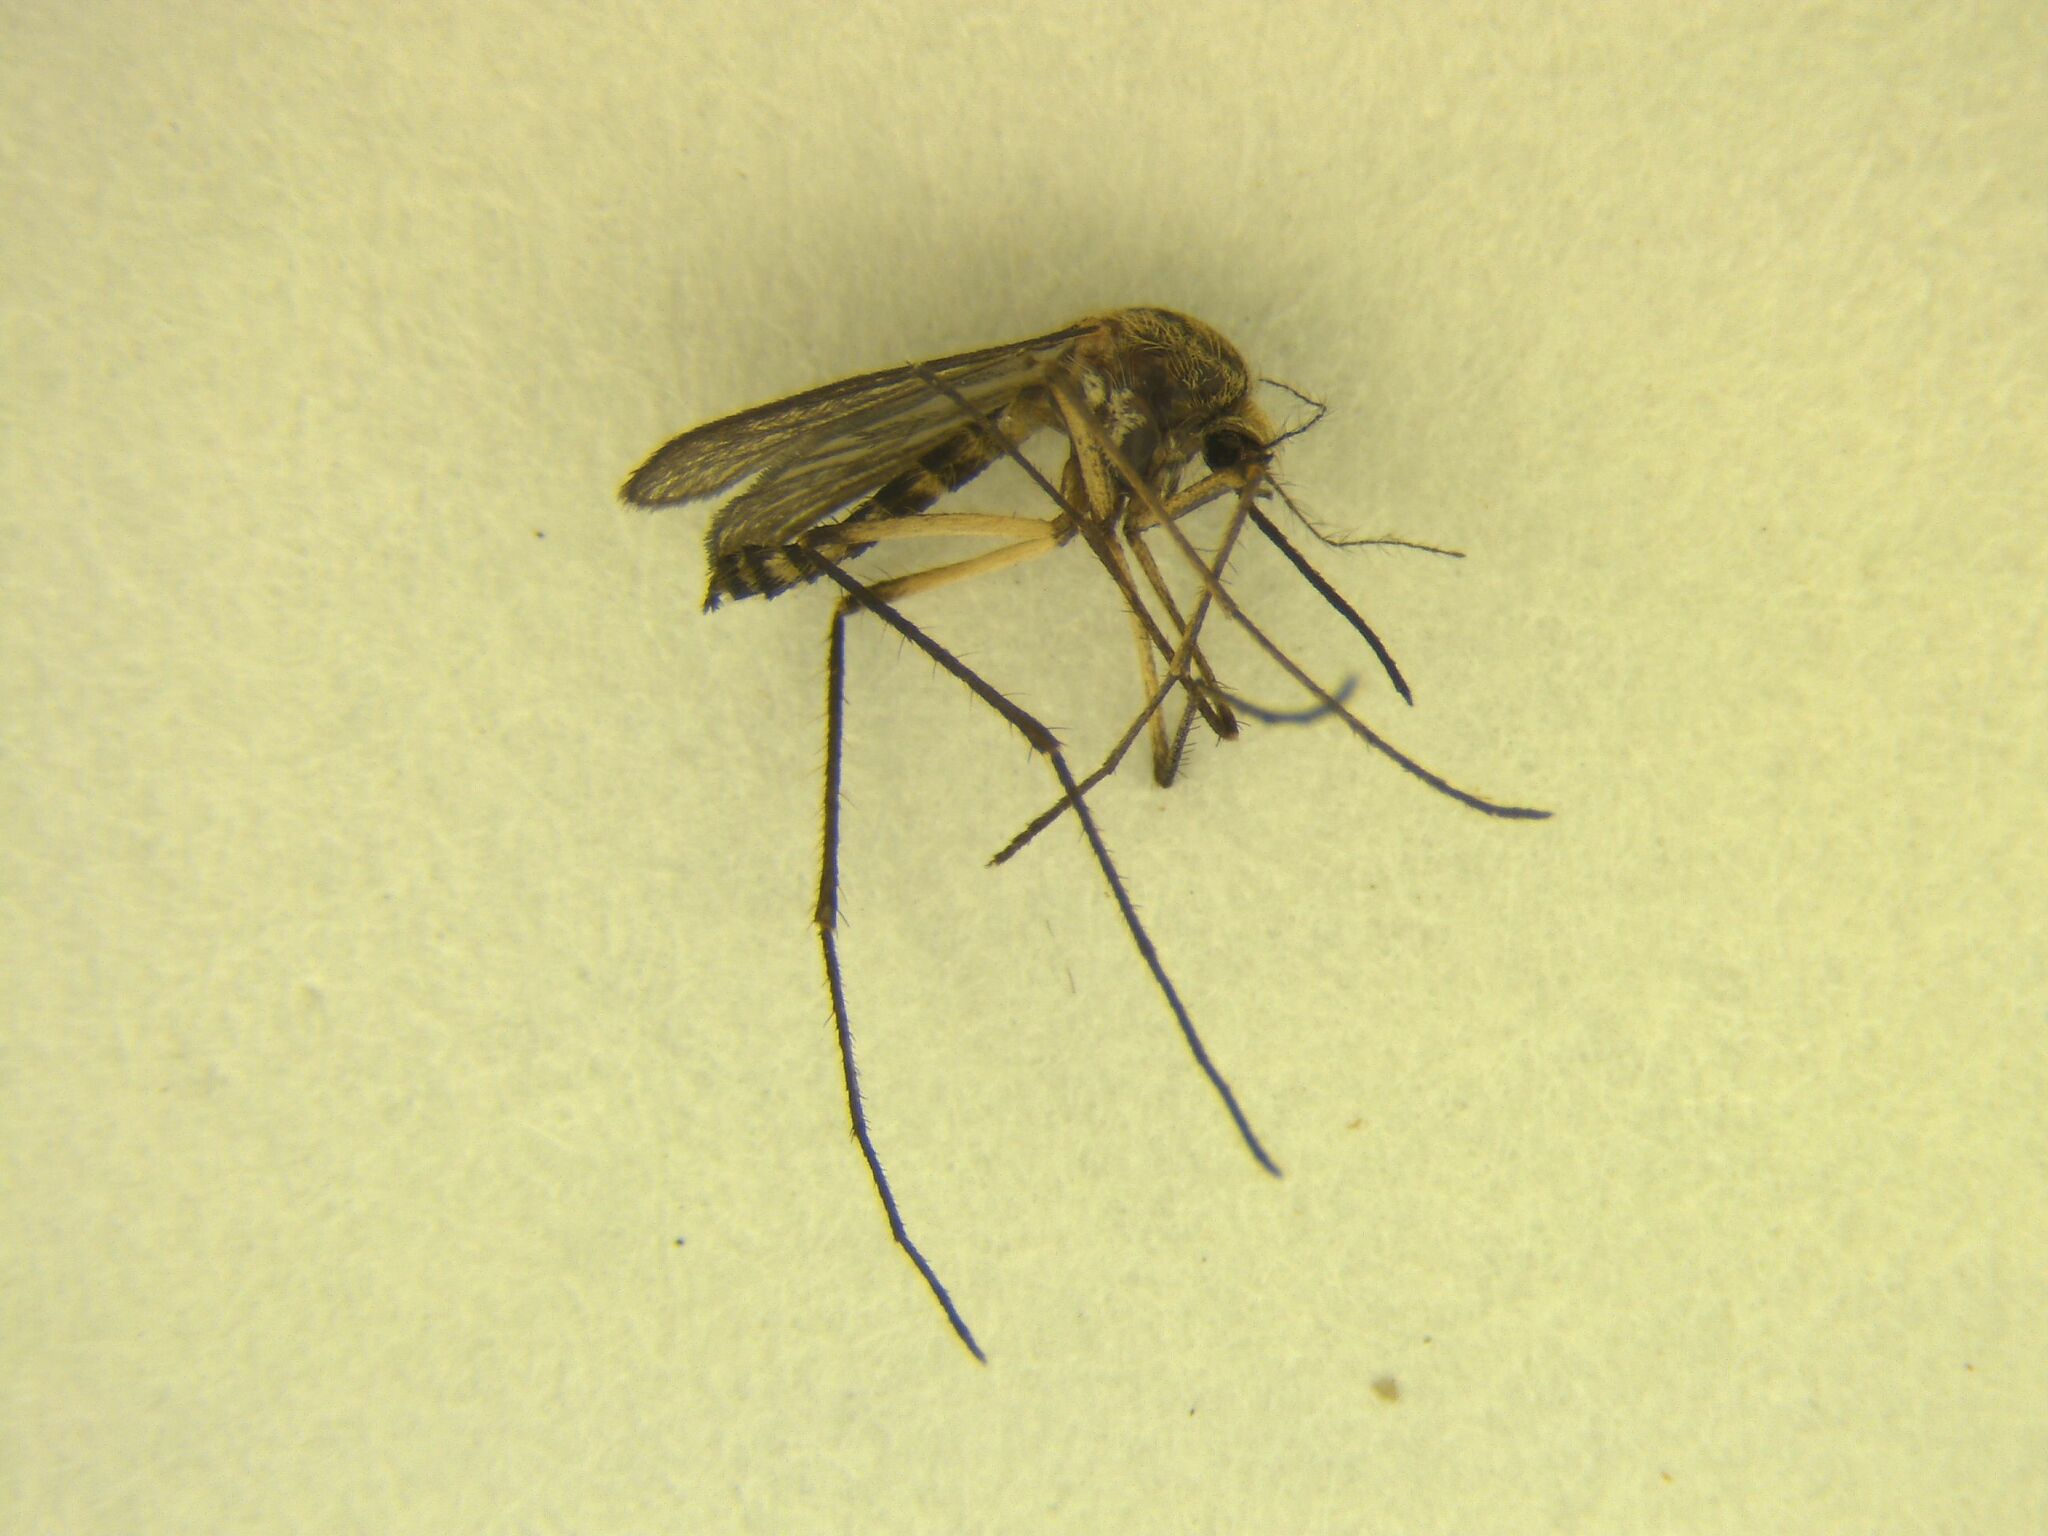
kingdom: Animalia
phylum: Arthropoda
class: Insecta
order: Diptera
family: Culicidae
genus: Coquillettidia
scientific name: Coquillettidia iracunda
